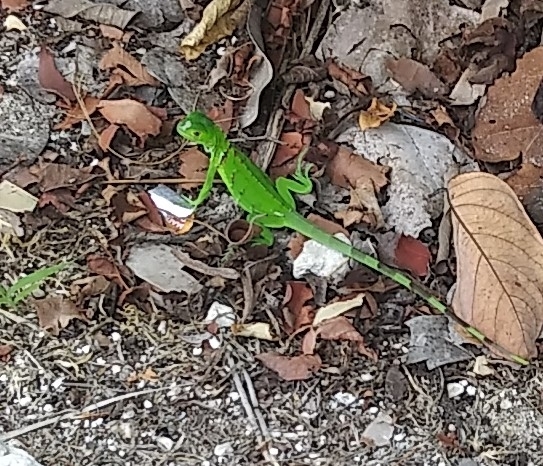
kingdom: Animalia
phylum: Chordata
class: Squamata
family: Iguanidae
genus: Iguana
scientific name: Iguana iguana
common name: Green iguana
